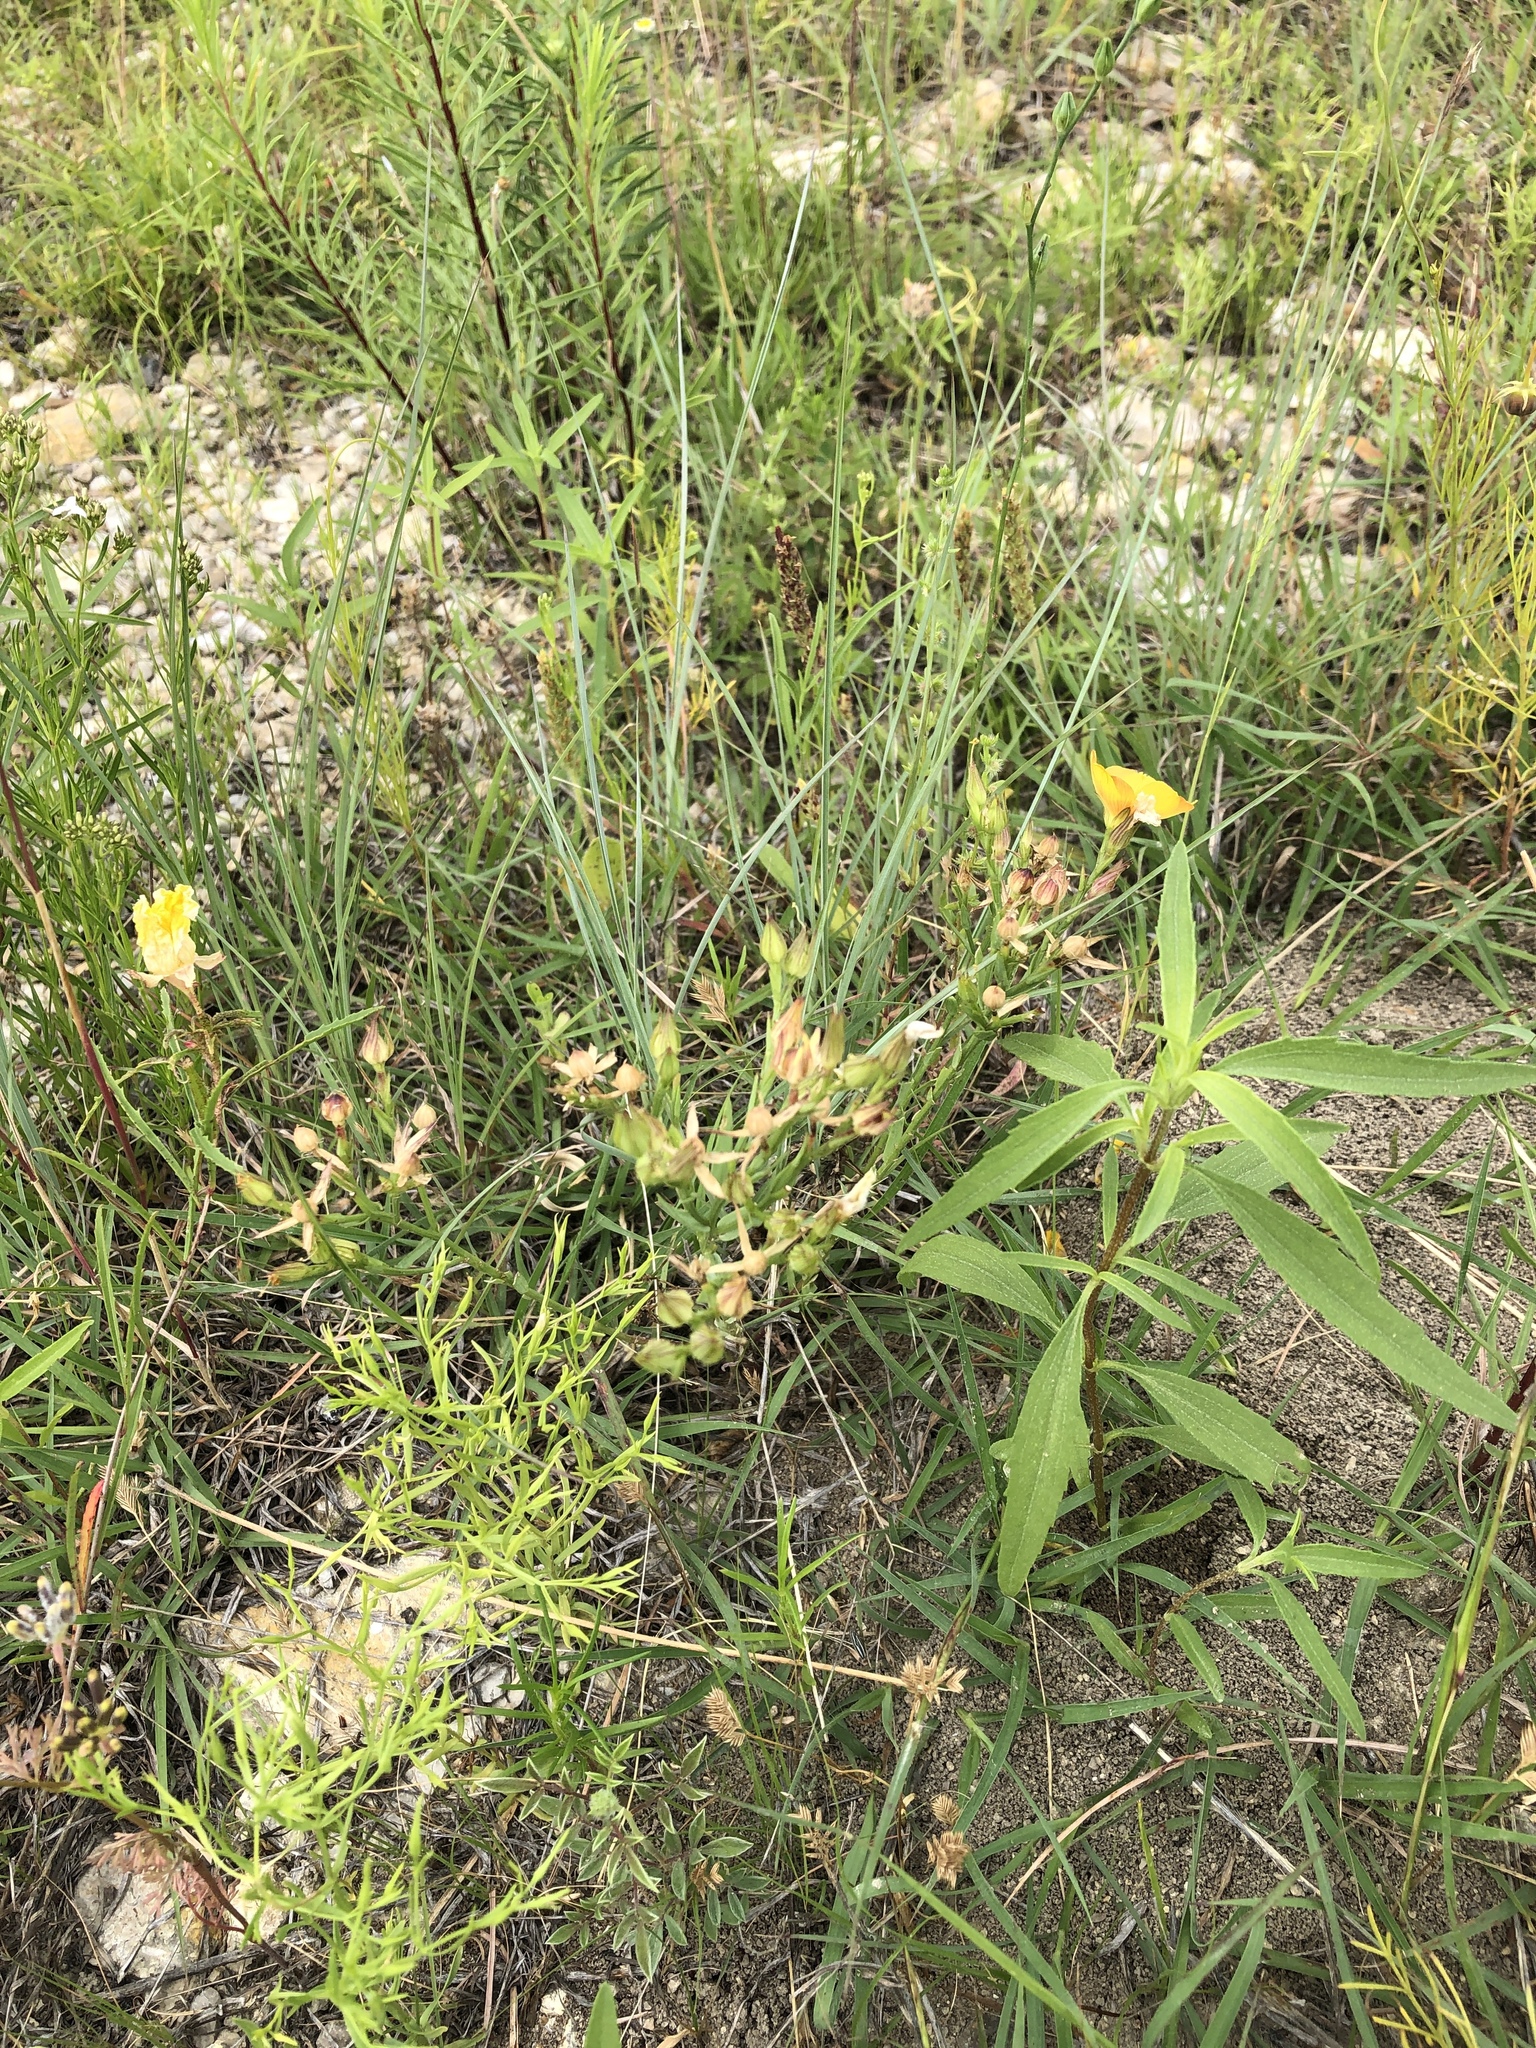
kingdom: Plantae
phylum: Tracheophyta
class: Magnoliopsida
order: Malpighiales
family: Linaceae
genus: Linum
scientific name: Linum berlandieri
